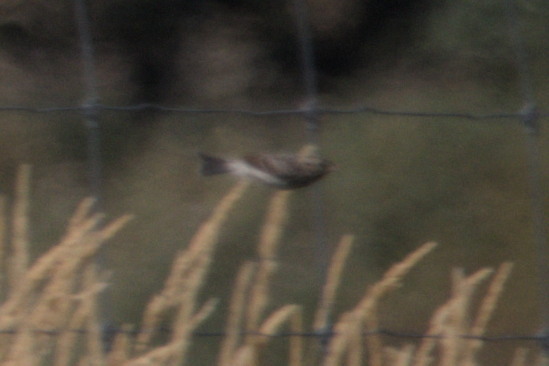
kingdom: Animalia
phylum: Chordata
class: Aves
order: Passeriformes
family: Passerellidae
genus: Spizella
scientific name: Spizella passerina
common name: Chipping sparrow
